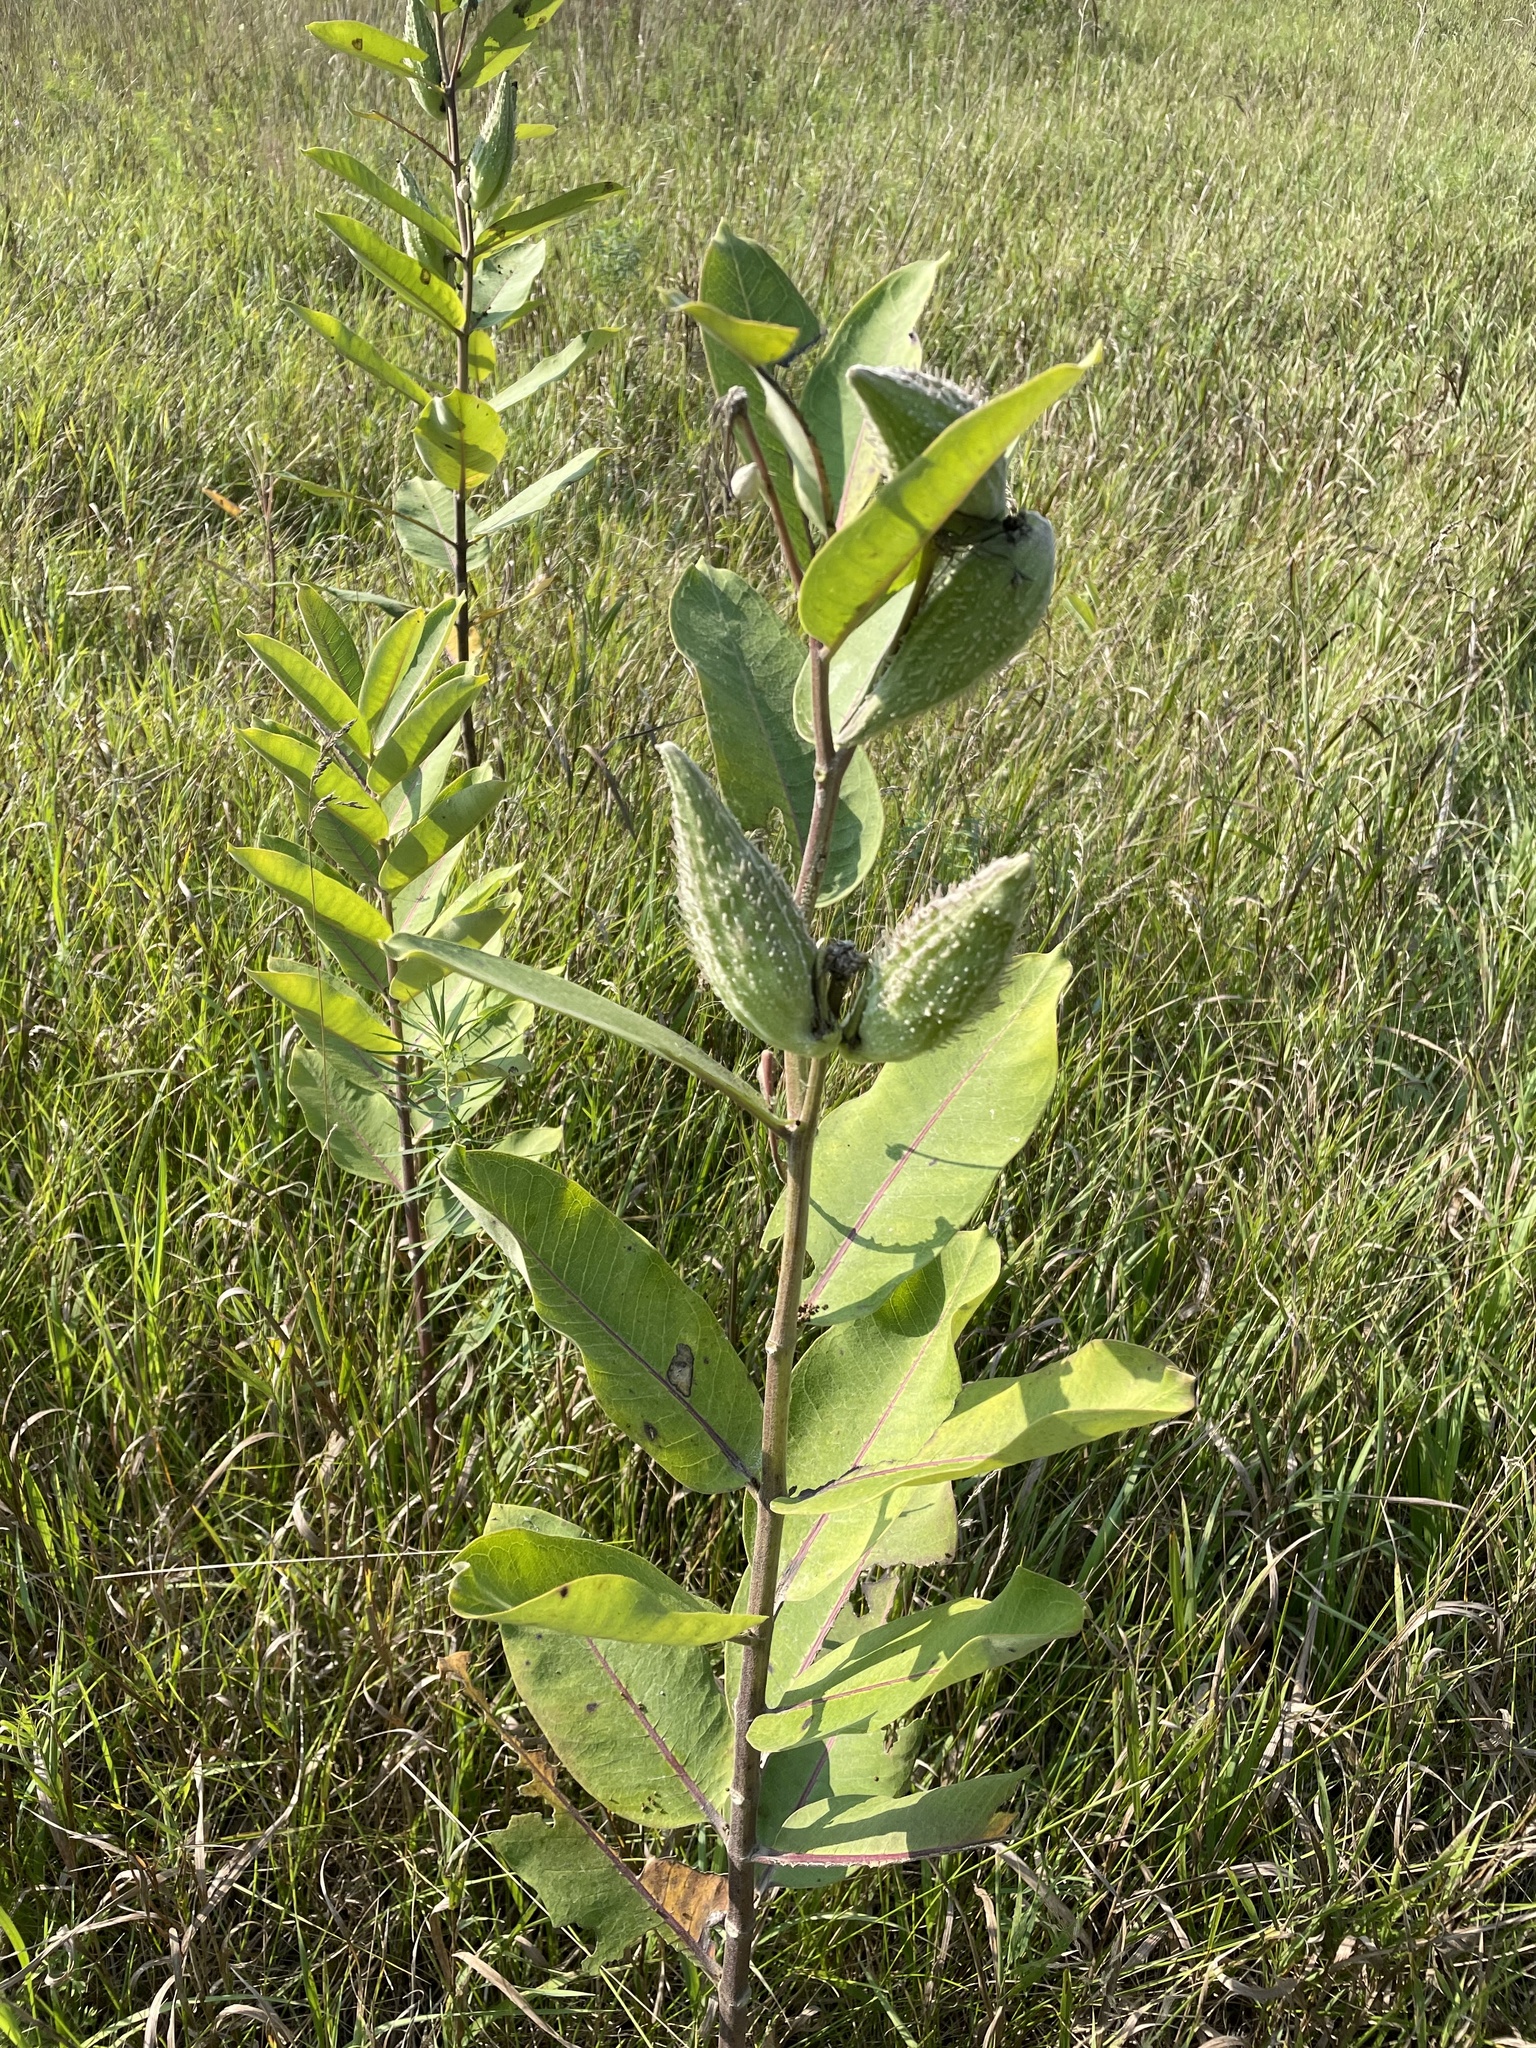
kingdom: Plantae
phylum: Tracheophyta
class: Magnoliopsida
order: Gentianales
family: Apocynaceae
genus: Asclepias
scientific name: Asclepias syriaca
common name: Common milkweed
